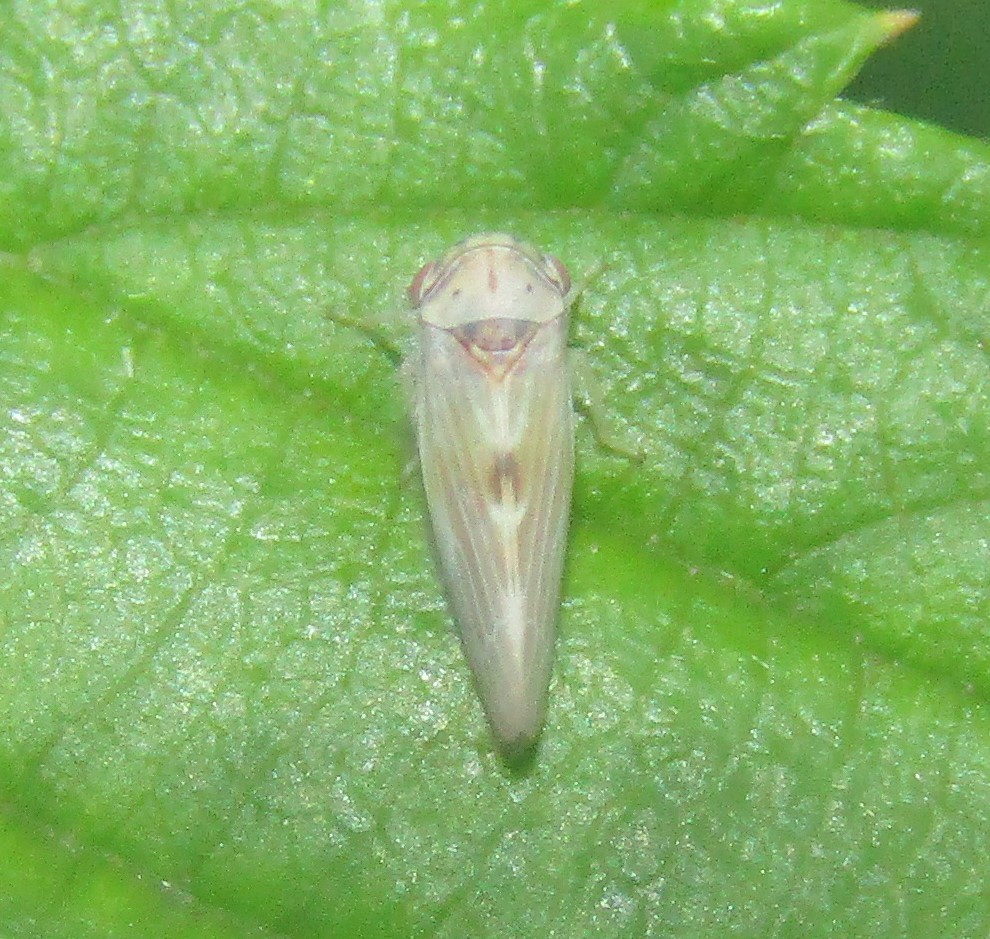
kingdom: Animalia
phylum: Arthropoda
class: Insecta
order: Hemiptera
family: Cicadellidae
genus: Agalliopsis
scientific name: Agalliopsis ancistra
